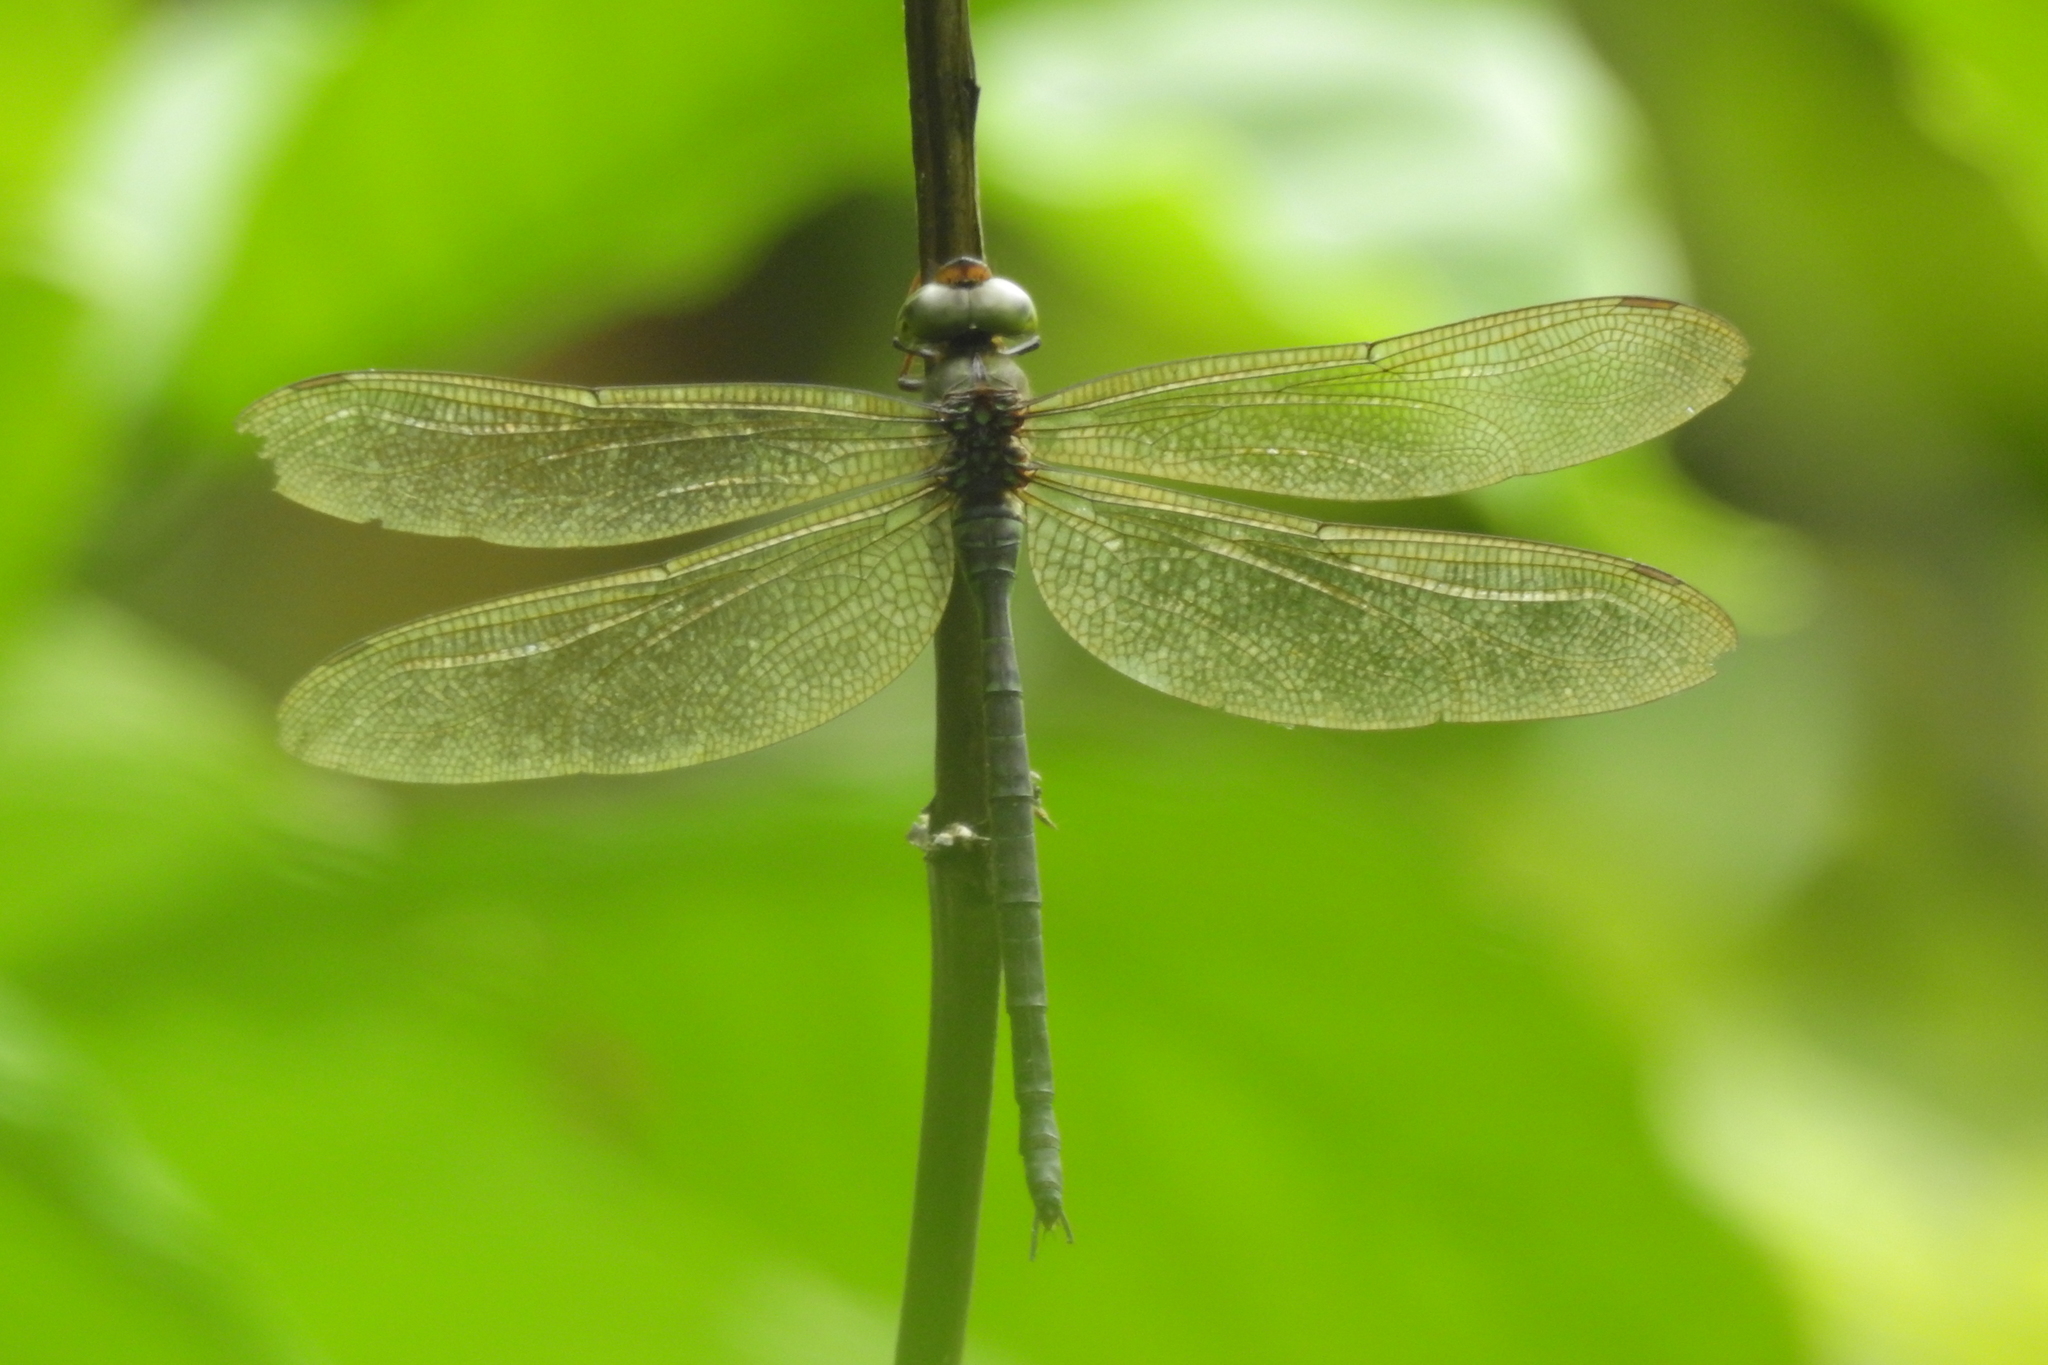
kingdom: Animalia
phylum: Arthropoda
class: Insecta
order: Odonata
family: Aeshnidae
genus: Gynacantha
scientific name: Gynacantha subinterrupta
